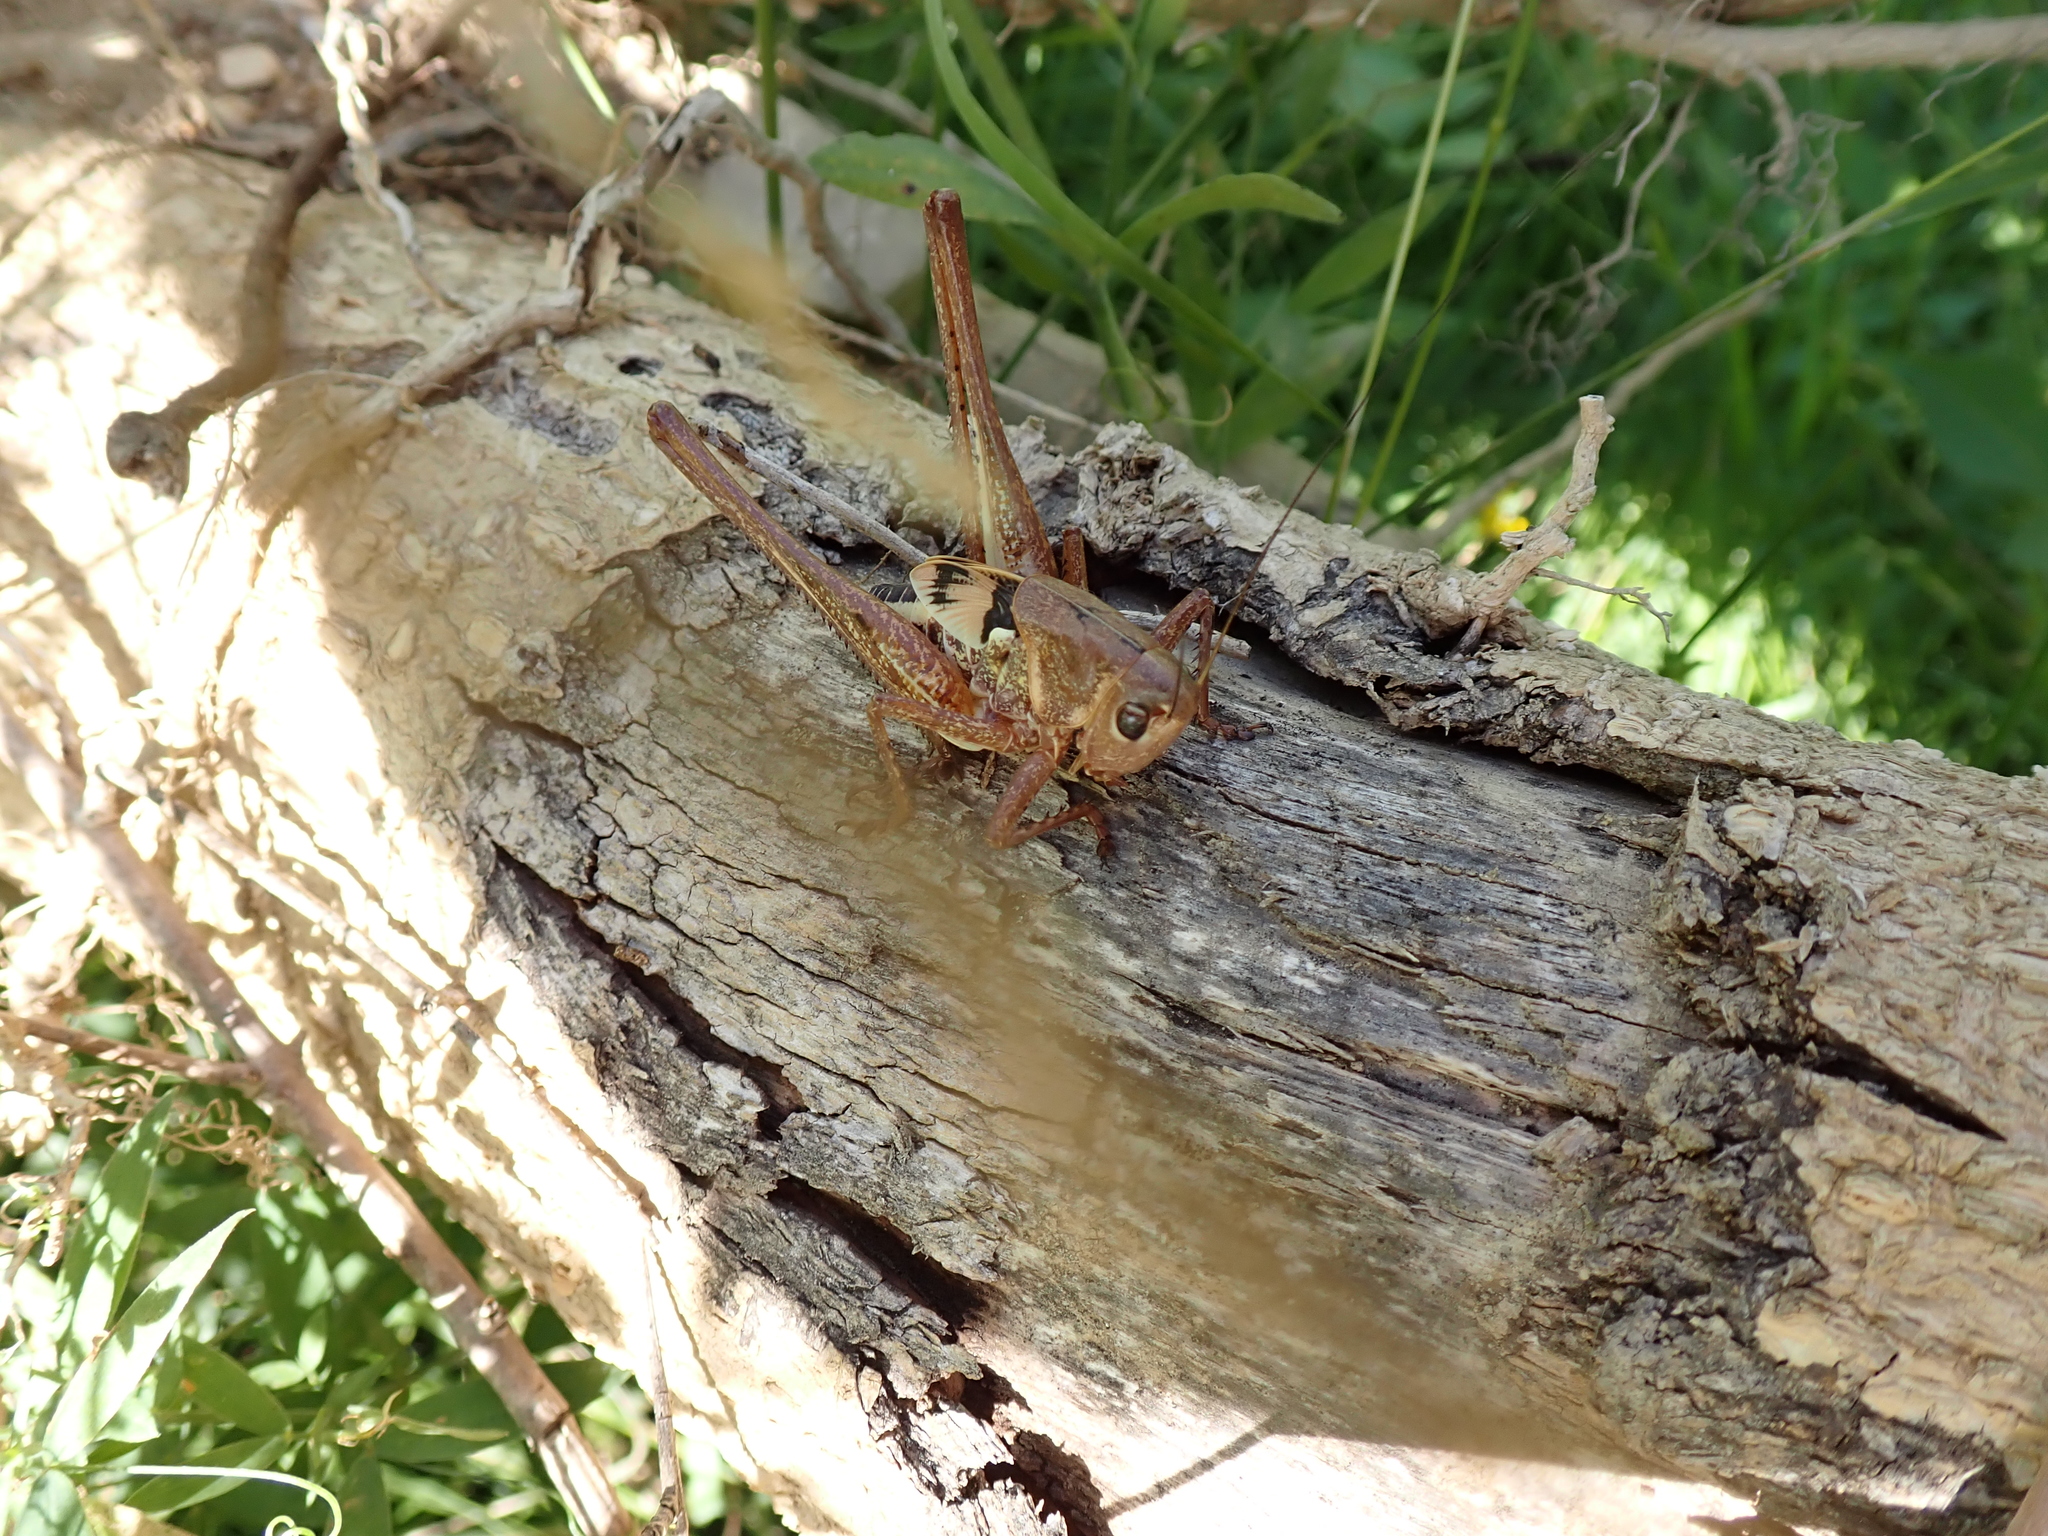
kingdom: Animalia
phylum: Arthropoda
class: Insecta
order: Orthoptera
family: Tettigoniidae
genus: Decticus
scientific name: Decticus albifrons
